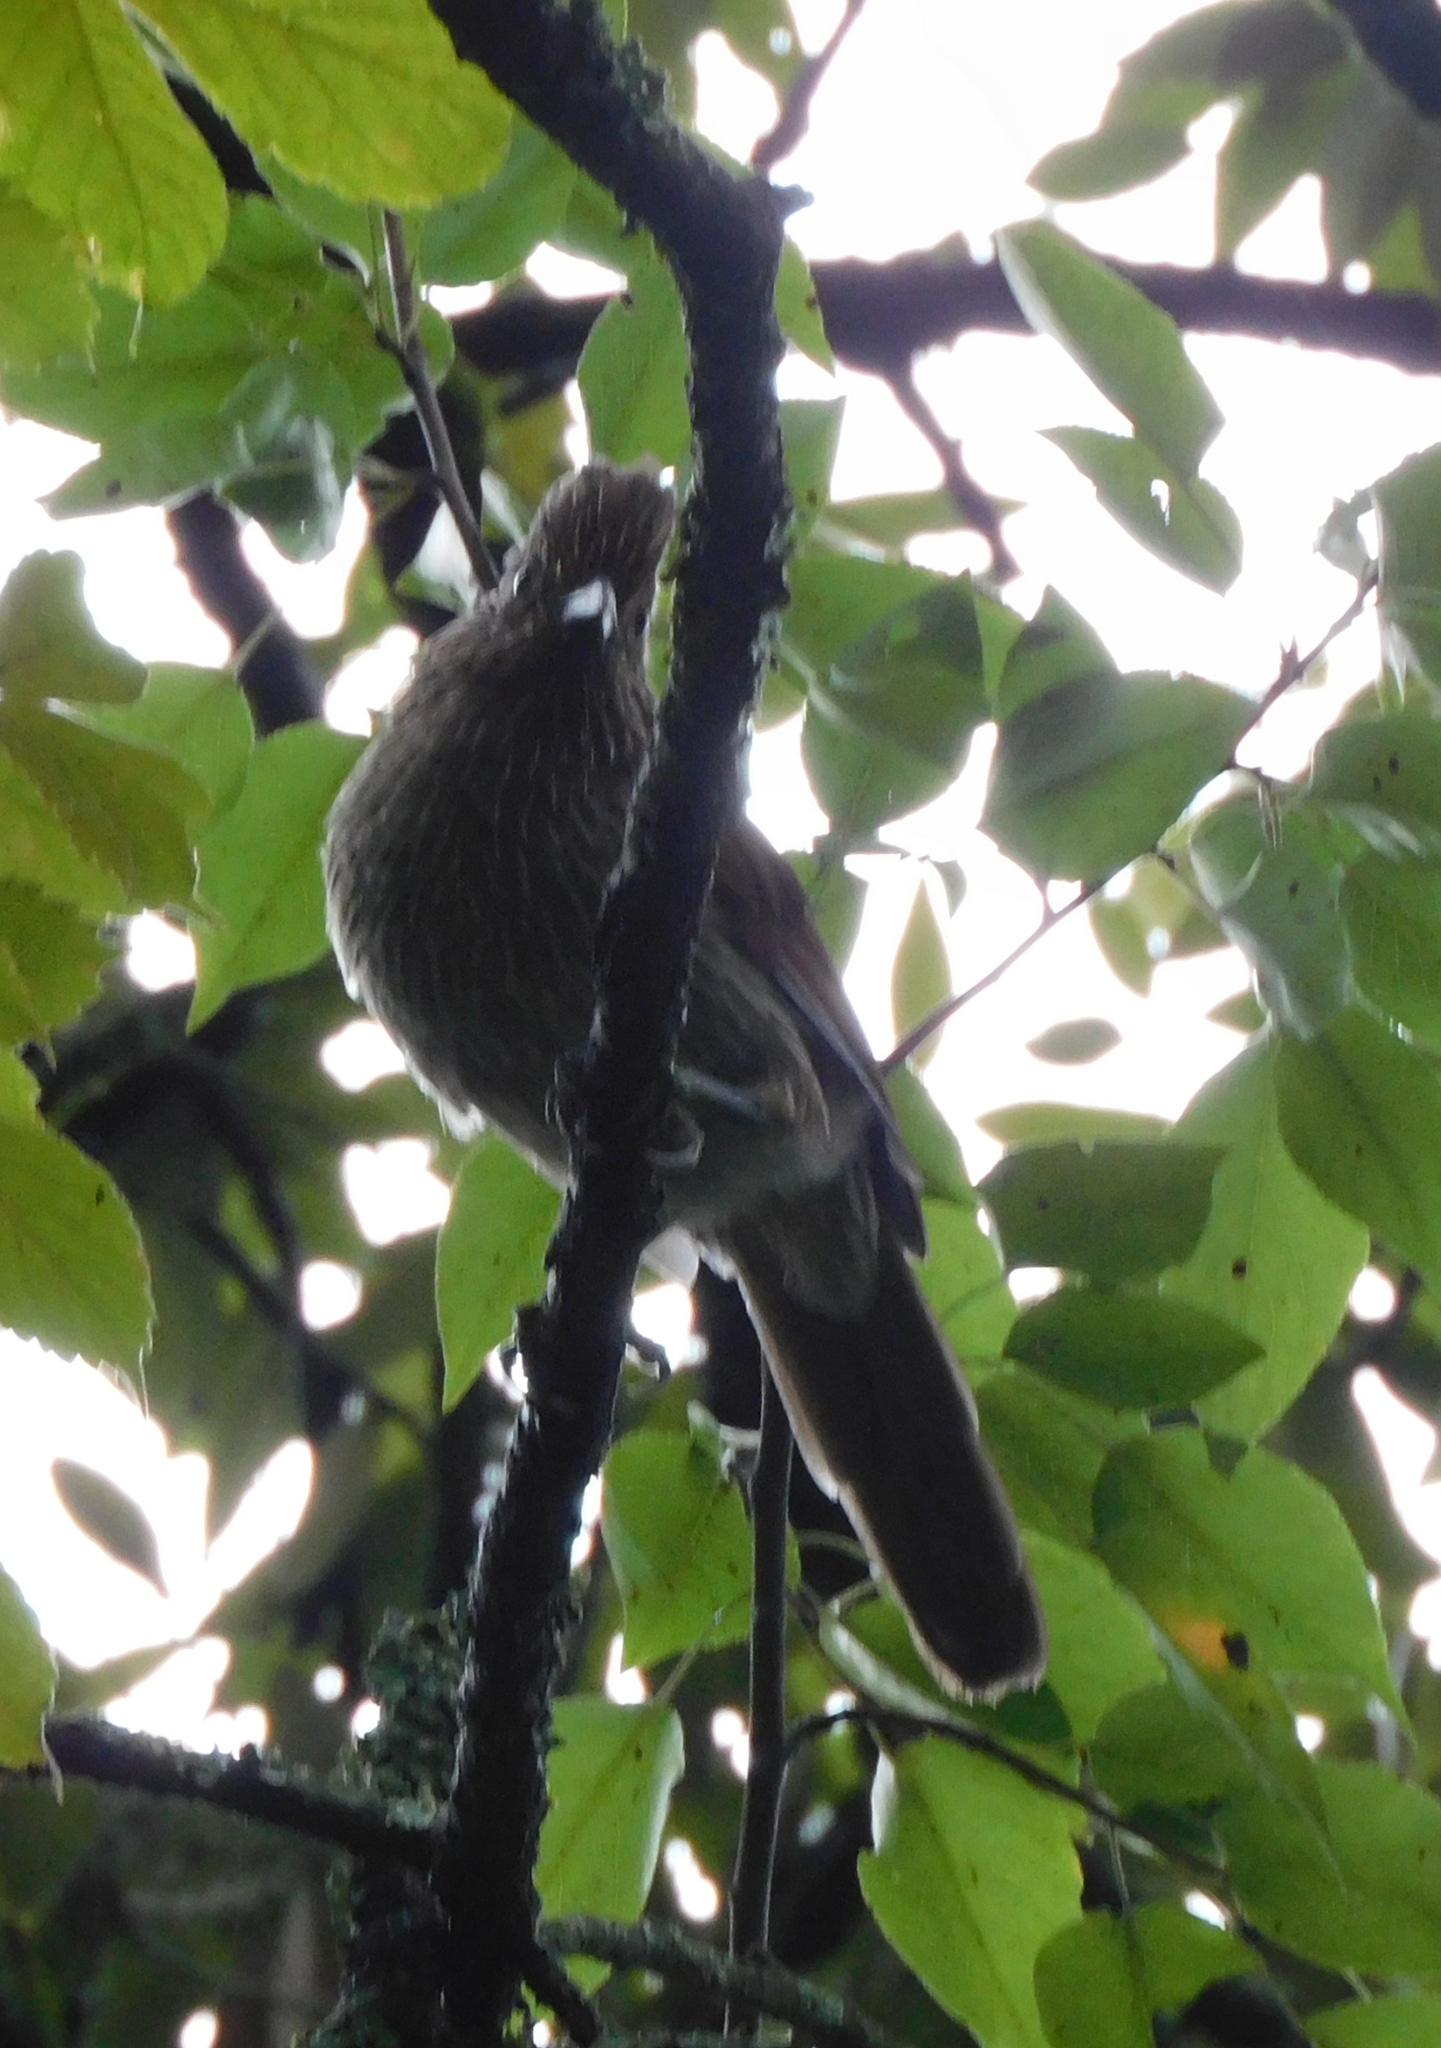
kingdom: Animalia
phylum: Chordata
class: Aves
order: Passeriformes
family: Leiothrichidae
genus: Garrulax
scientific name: Garrulax striatus
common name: Striated laughingthrush
